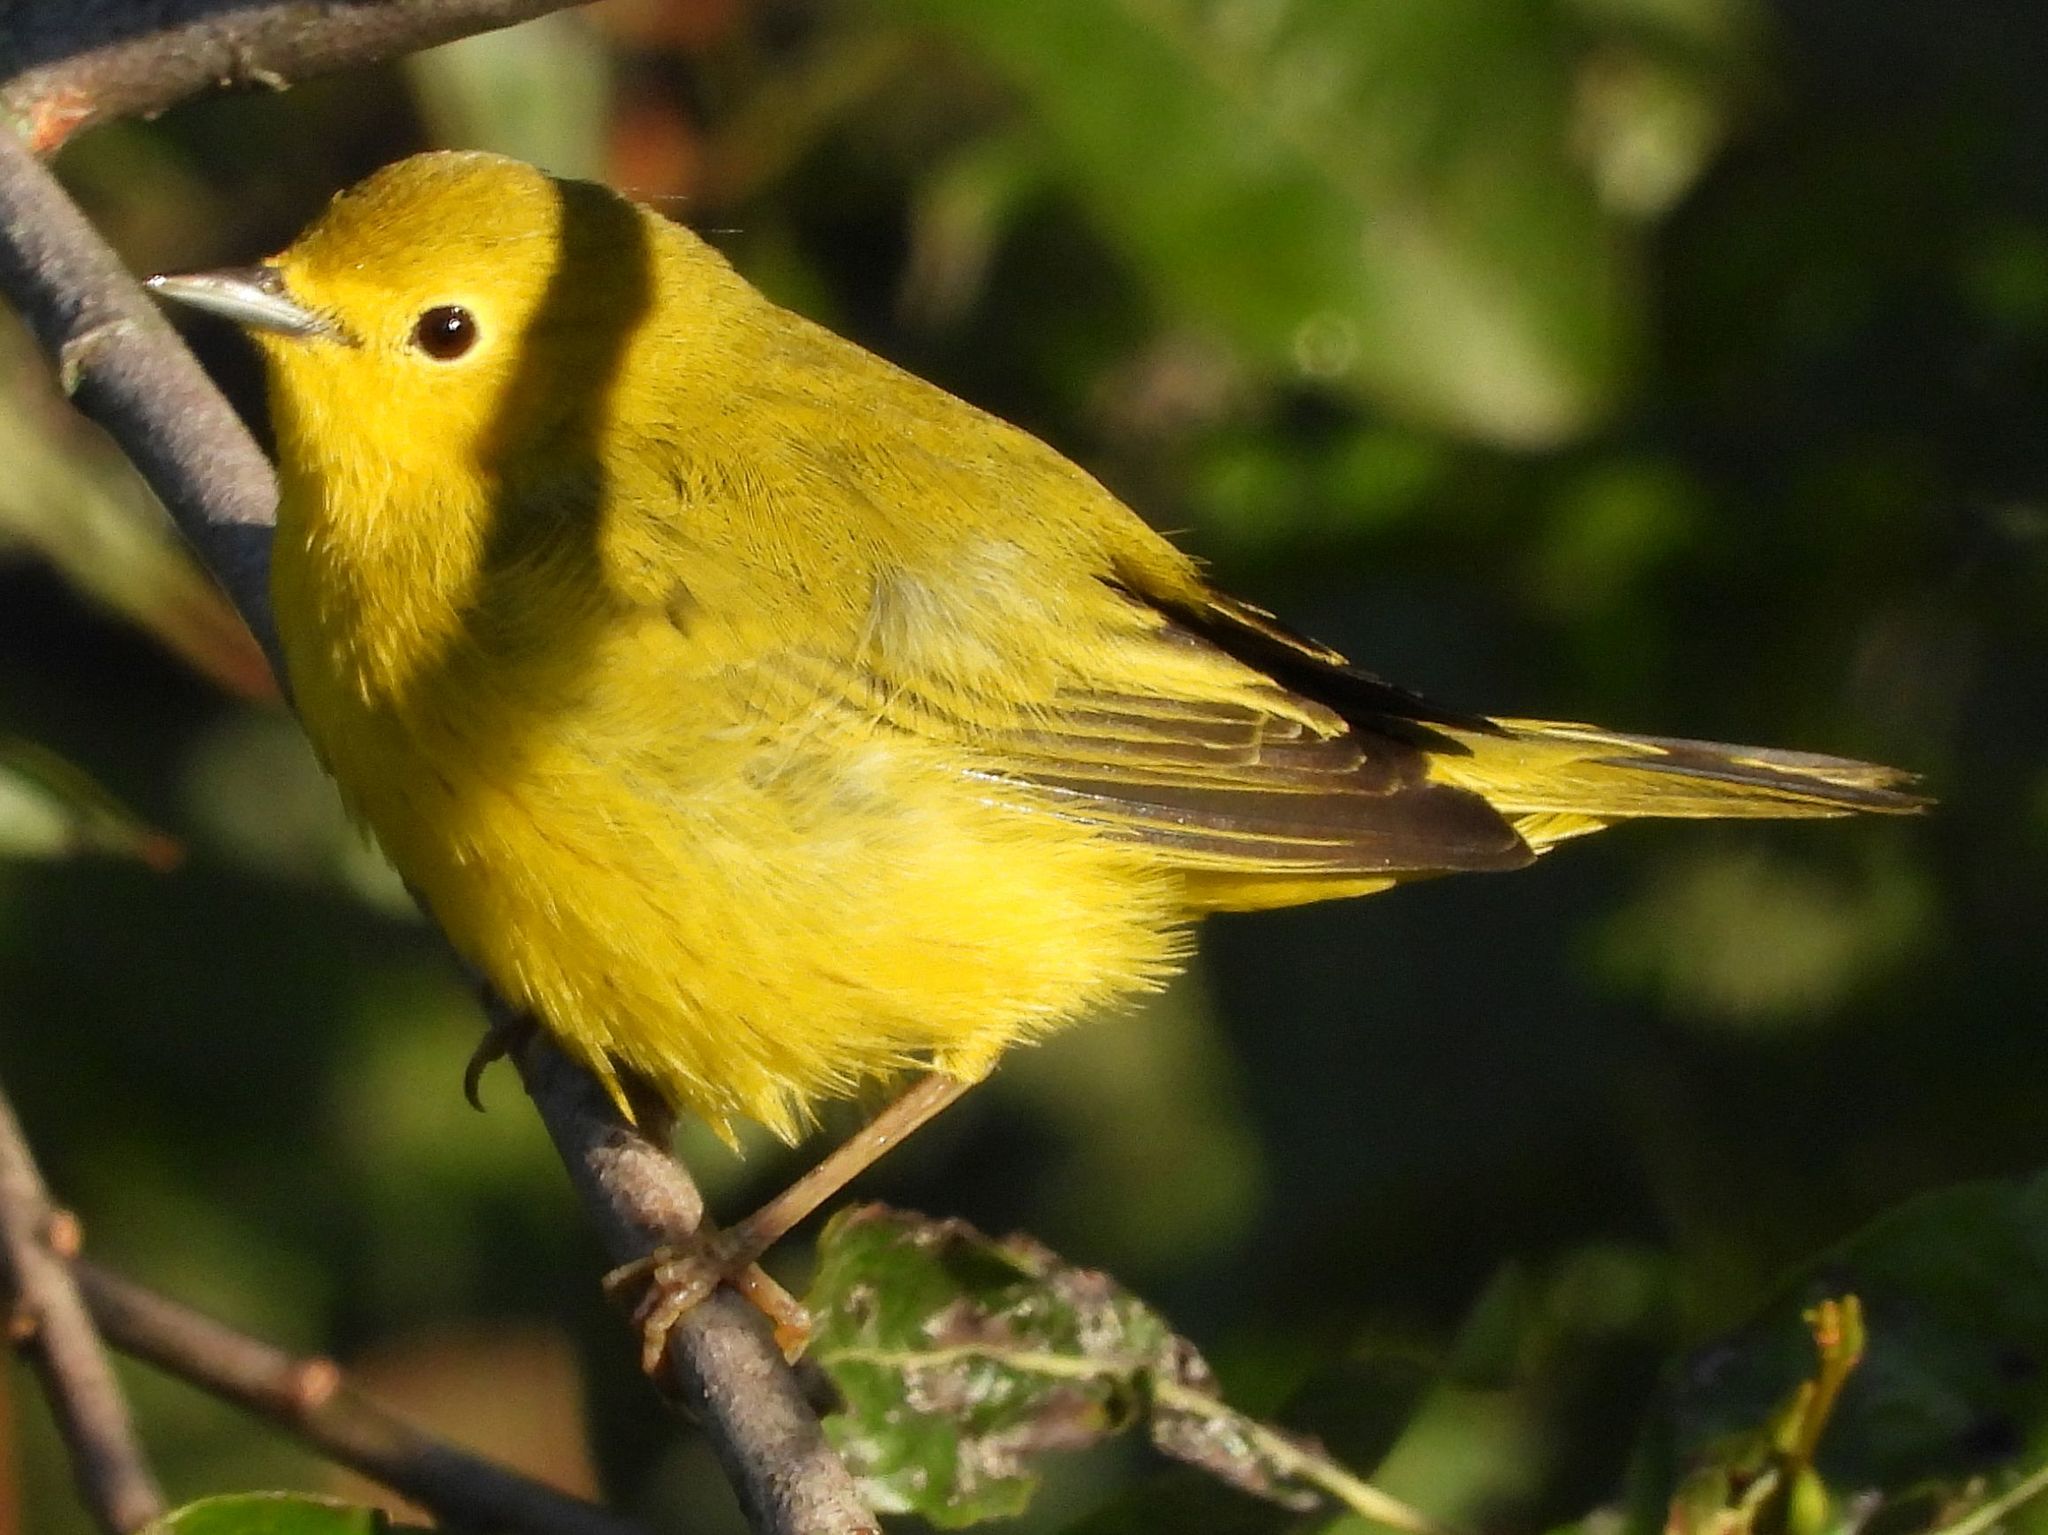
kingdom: Animalia
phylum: Chordata
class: Aves
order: Passeriformes
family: Parulidae
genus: Setophaga
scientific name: Setophaga petechia
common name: Yellow warbler
